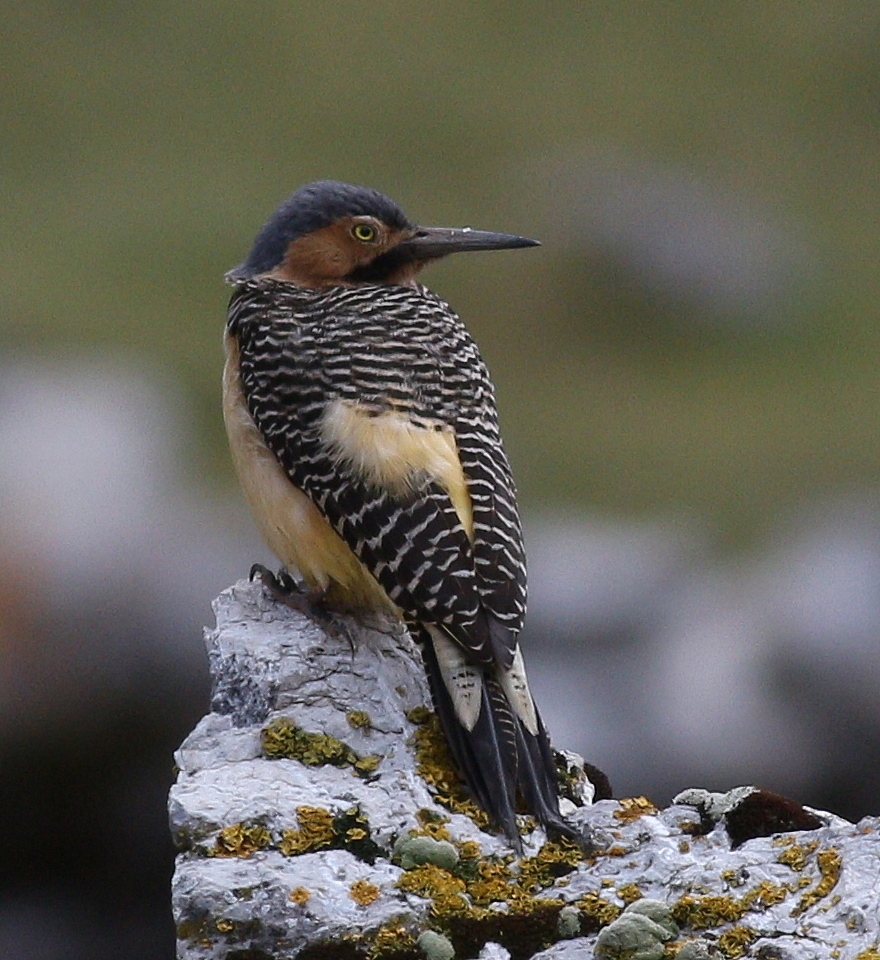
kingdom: Animalia
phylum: Chordata
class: Aves
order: Piciformes
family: Picidae
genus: Colaptes
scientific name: Colaptes rupicola
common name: Andean flicker
